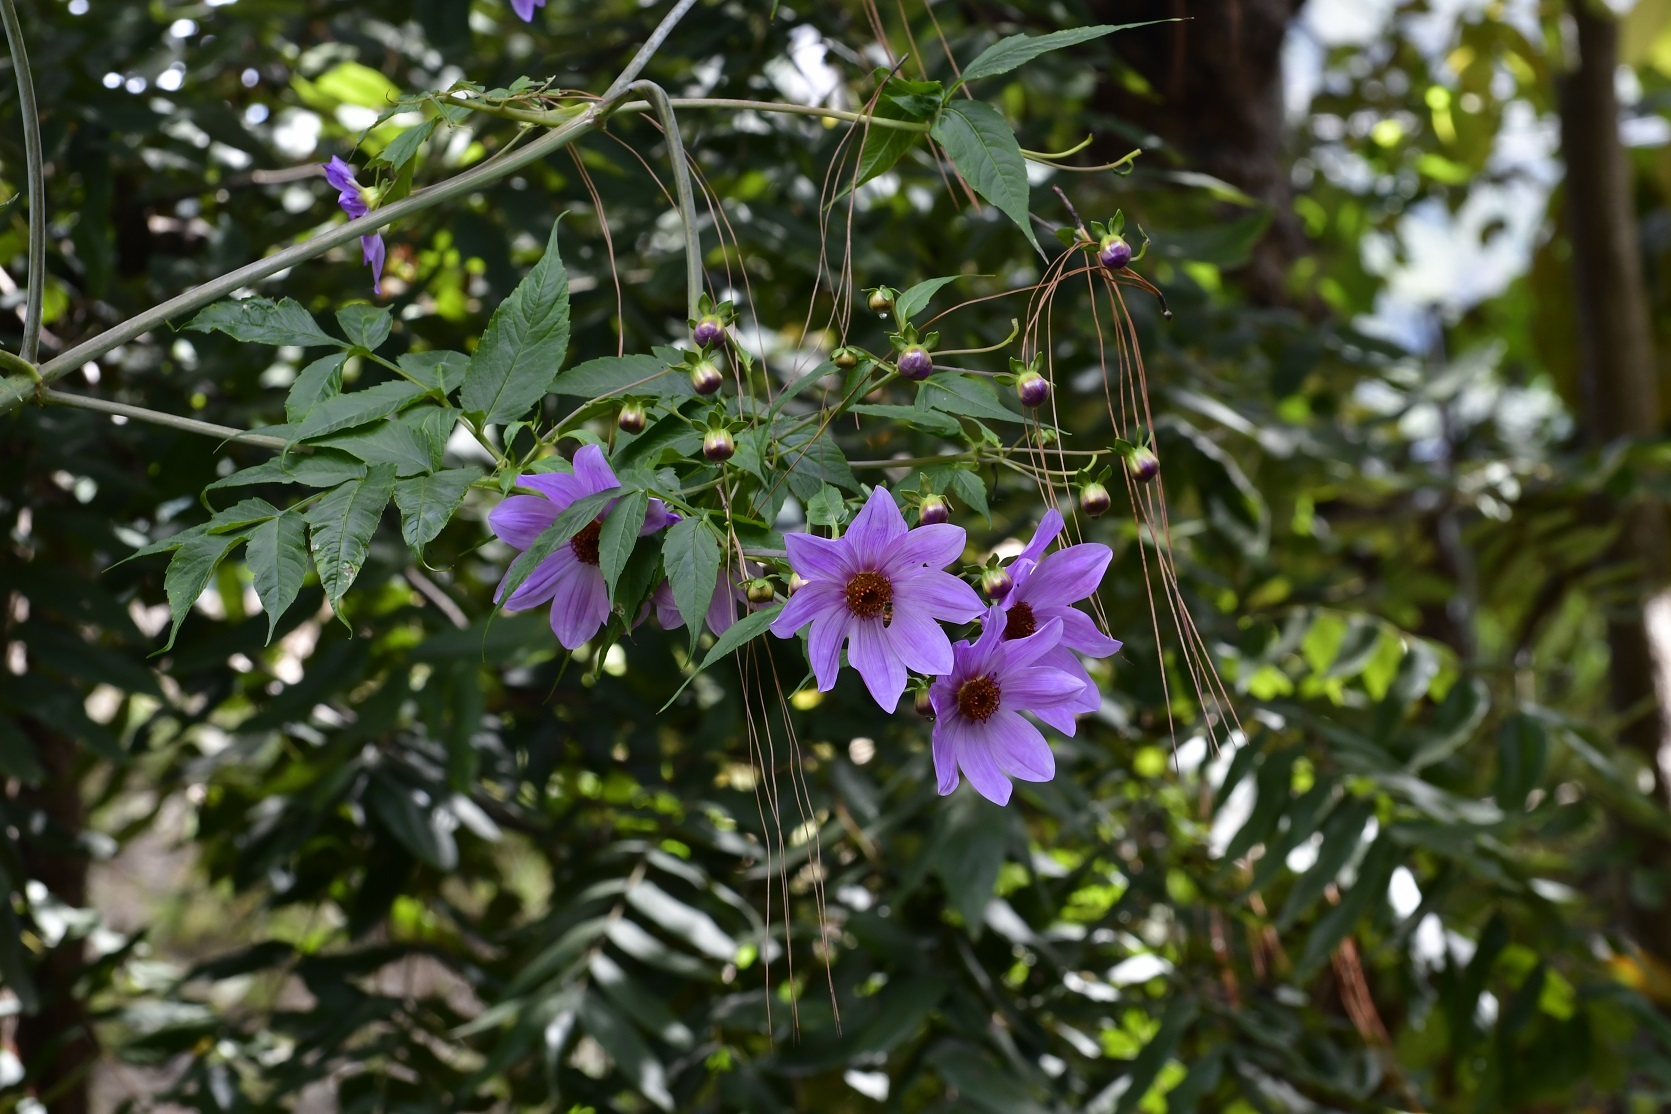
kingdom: Plantae
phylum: Tracheophyta
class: Magnoliopsida
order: Asterales
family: Asteraceae
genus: Dahlia
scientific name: Dahlia imperialis
